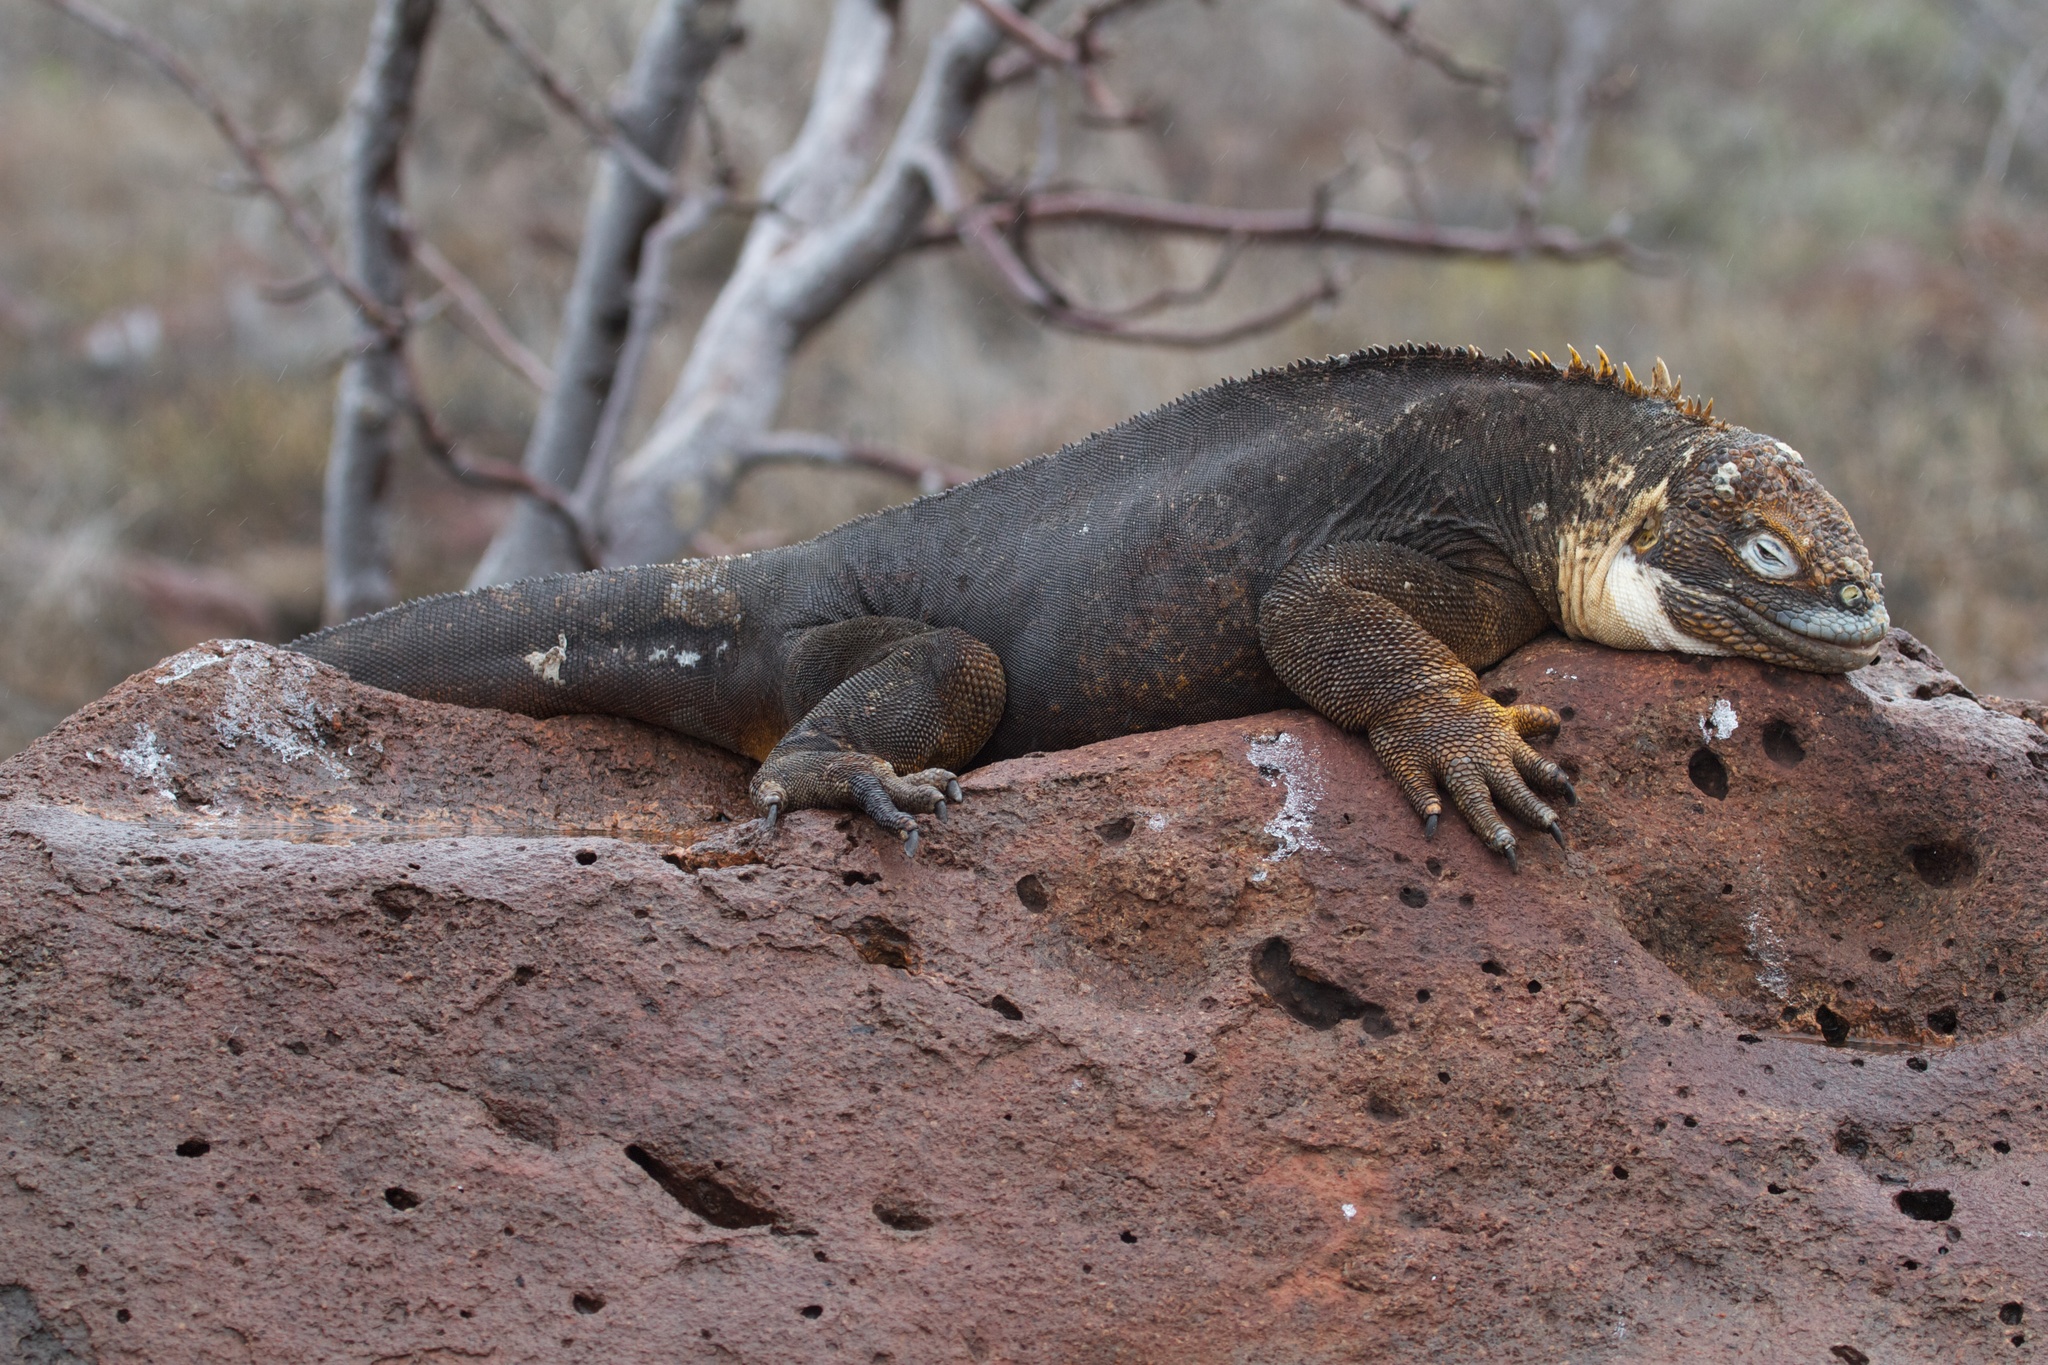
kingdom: Animalia
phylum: Chordata
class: Squamata
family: Iguanidae
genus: Conolophus
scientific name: Conolophus subcristatus
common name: Galapagos land iguana
